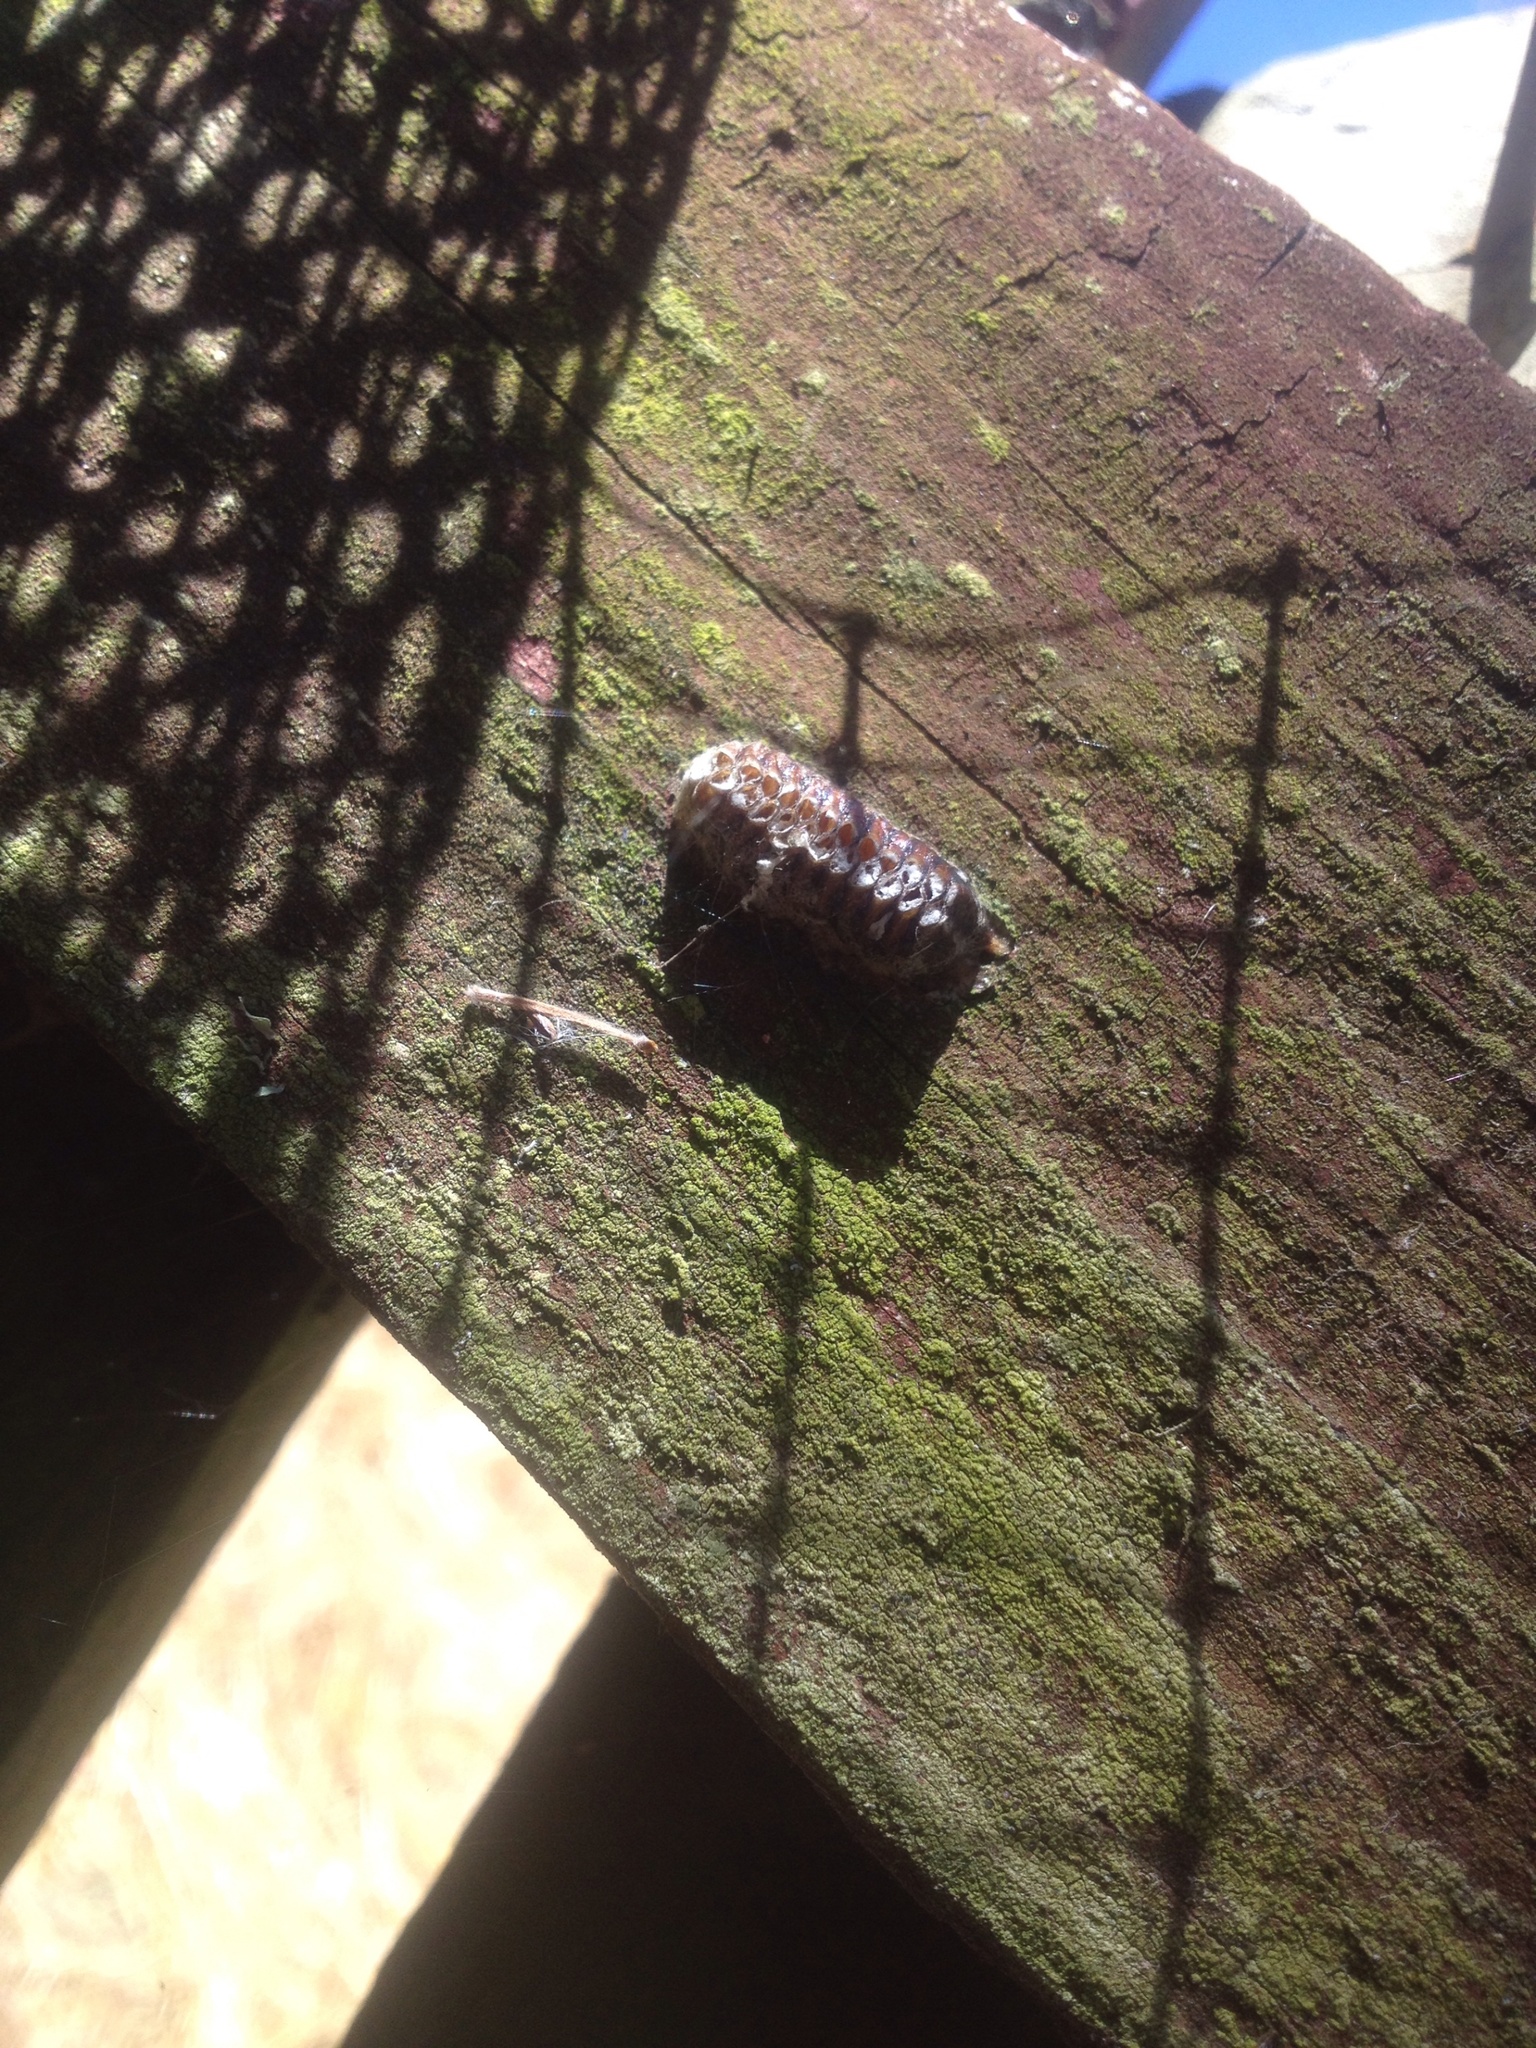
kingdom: Animalia
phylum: Arthropoda
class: Insecta
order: Mantodea
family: Mantidae
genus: Orthodera
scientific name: Orthodera novaezealandiae
